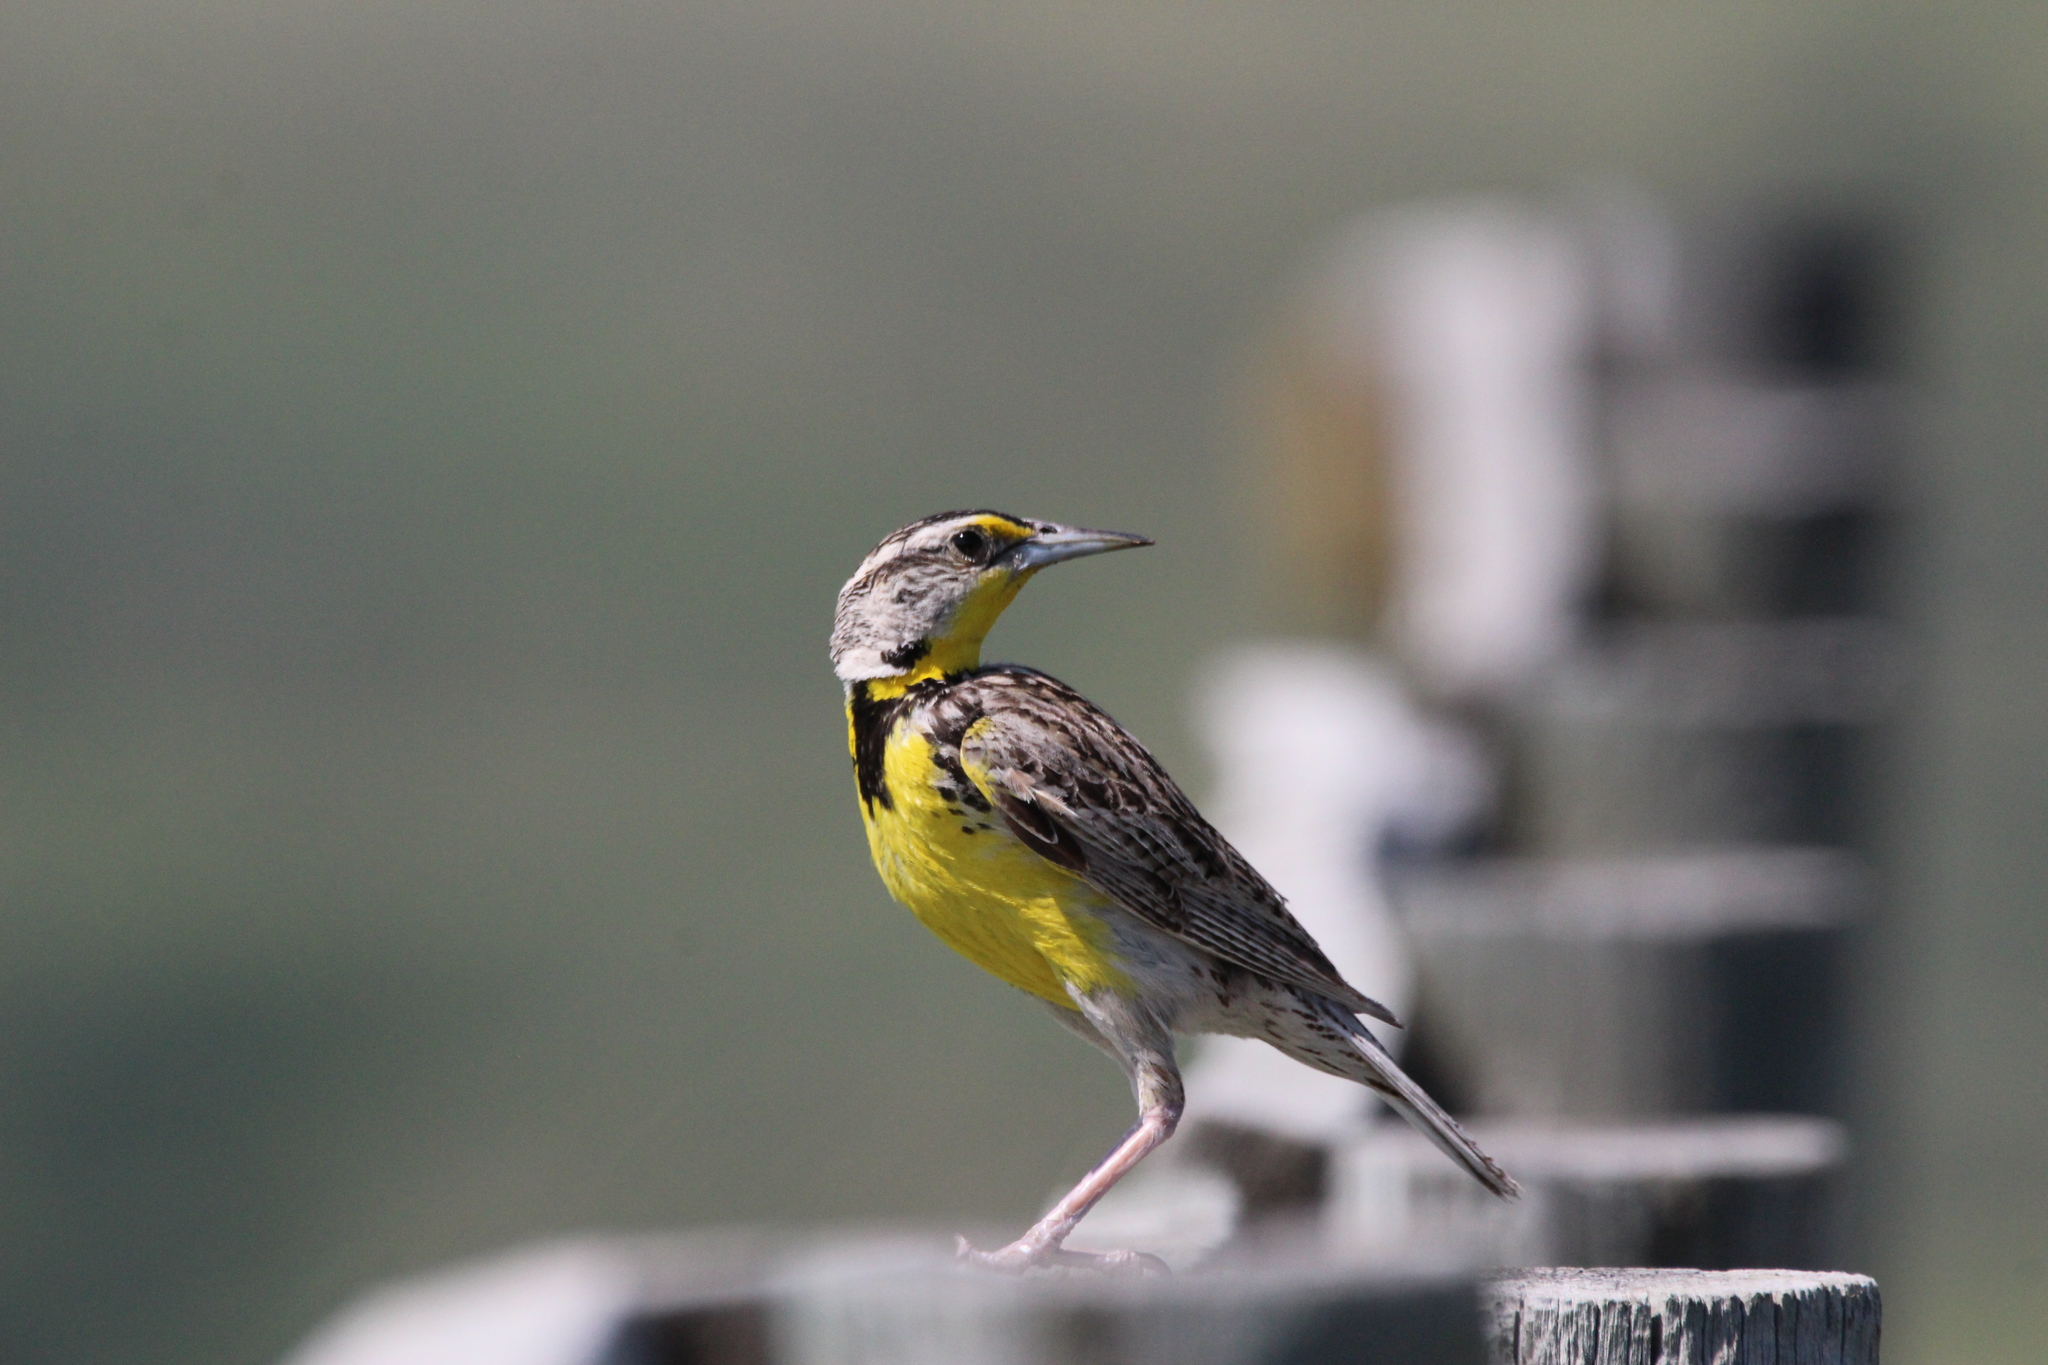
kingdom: Animalia
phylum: Chordata
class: Aves
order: Passeriformes
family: Icteridae
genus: Sturnella
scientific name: Sturnella neglecta
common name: Western meadowlark
